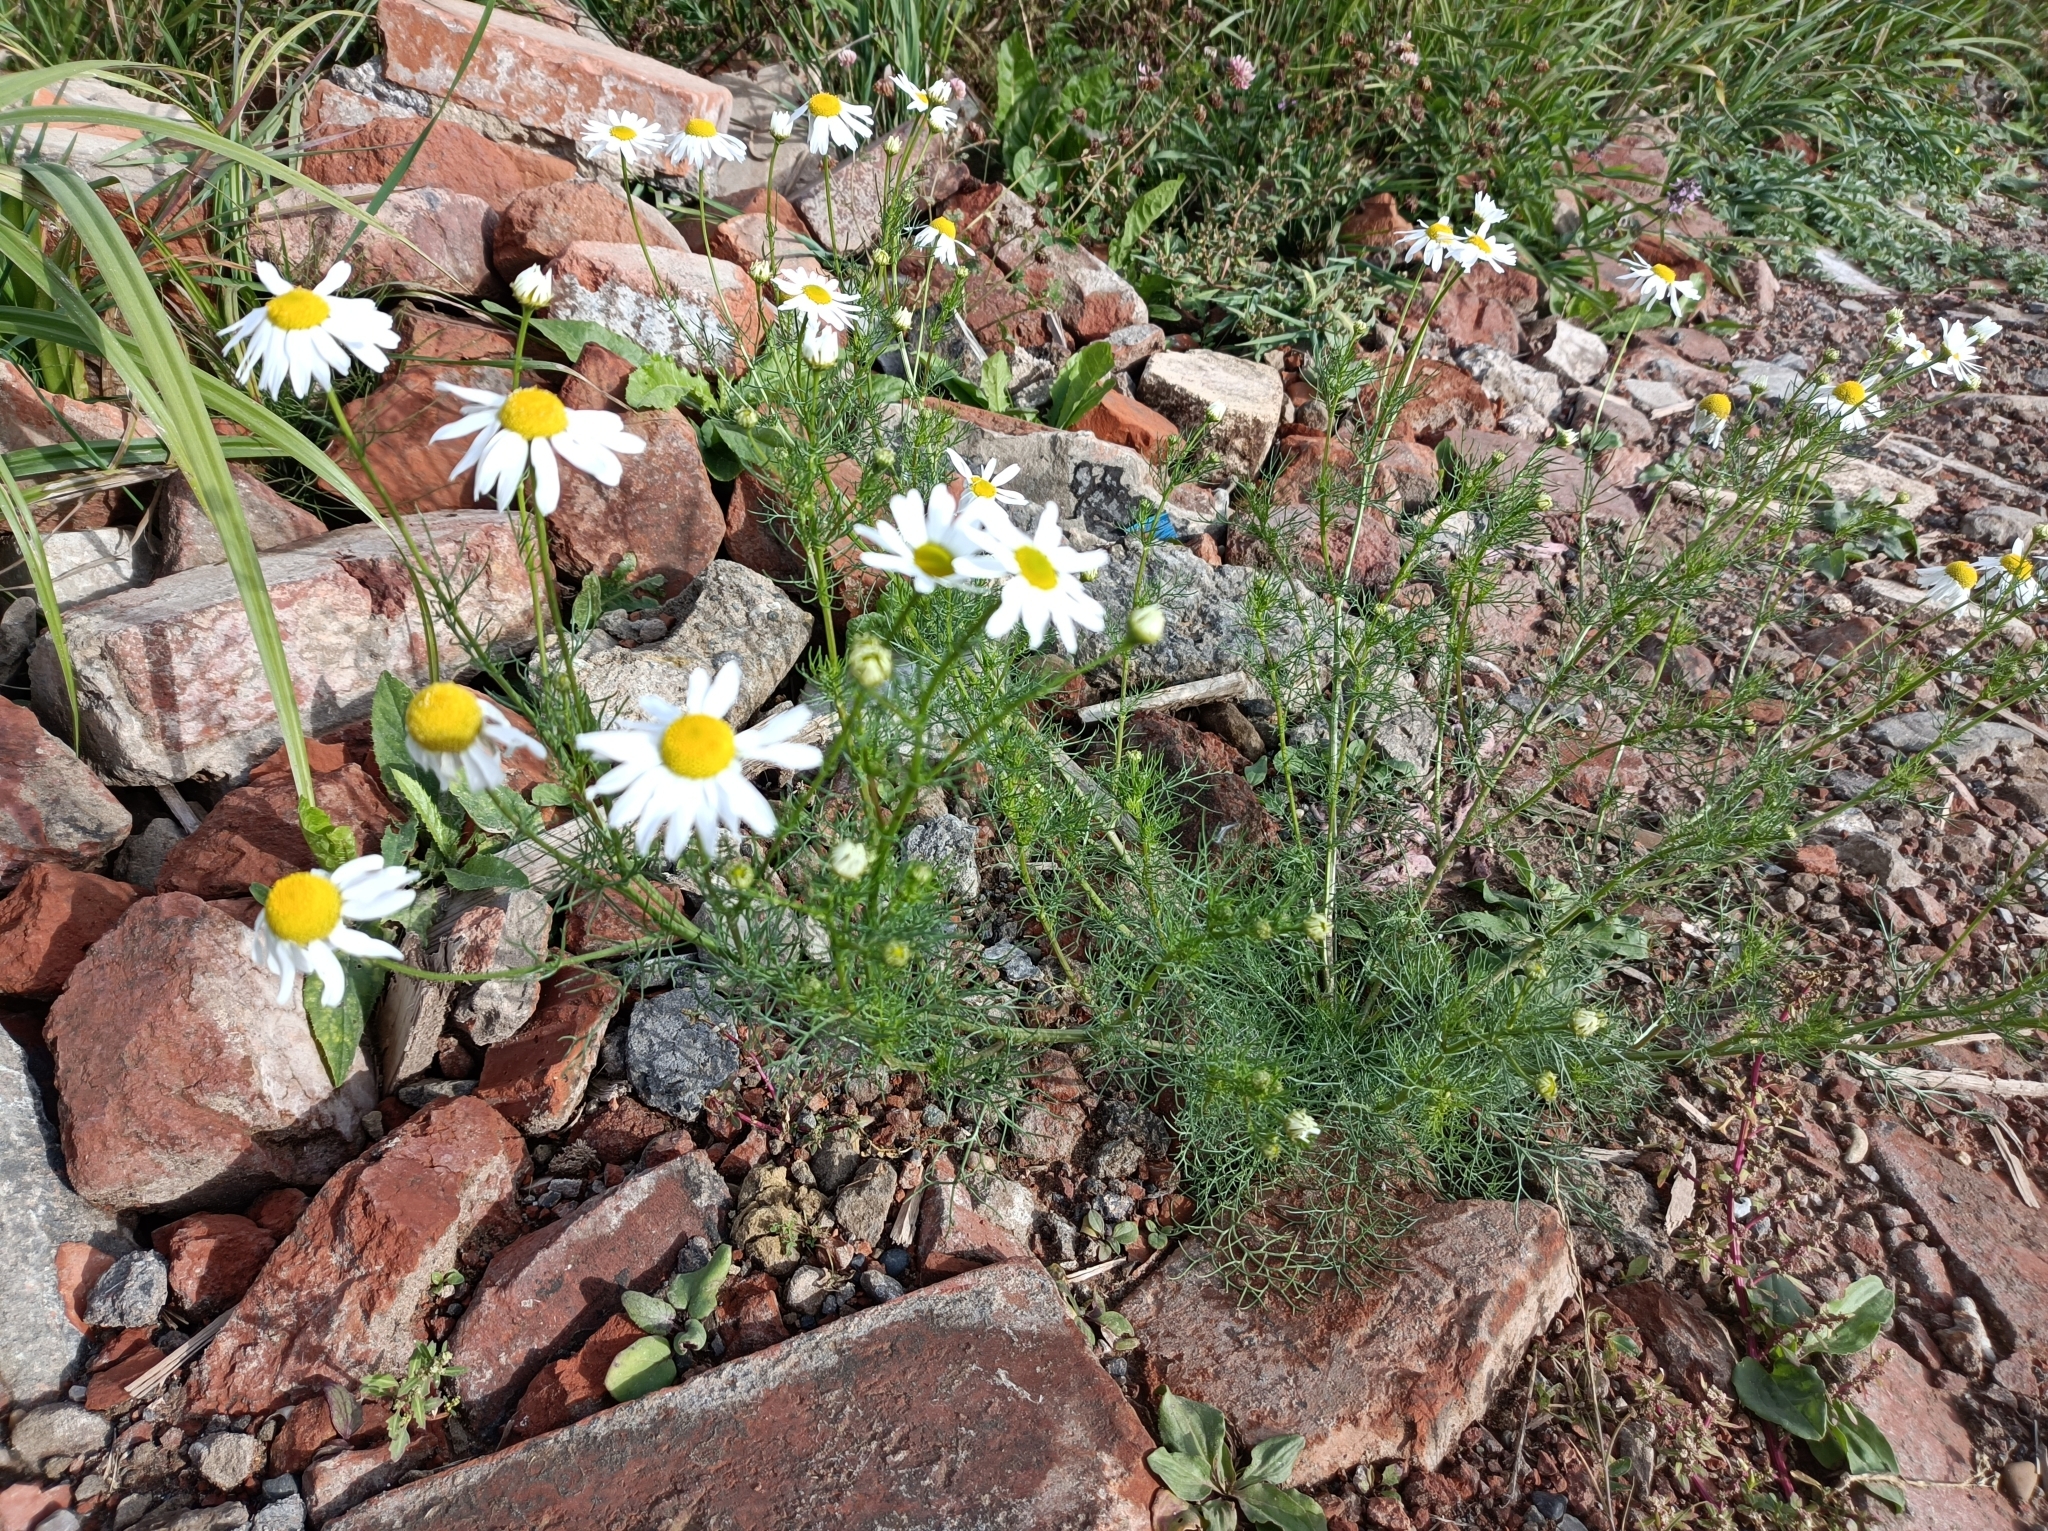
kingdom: Plantae
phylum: Tracheophyta
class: Magnoliopsida
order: Asterales
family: Asteraceae
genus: Tripleurospermum
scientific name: Tripleurospermum inodorum
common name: Scentless mayweed
